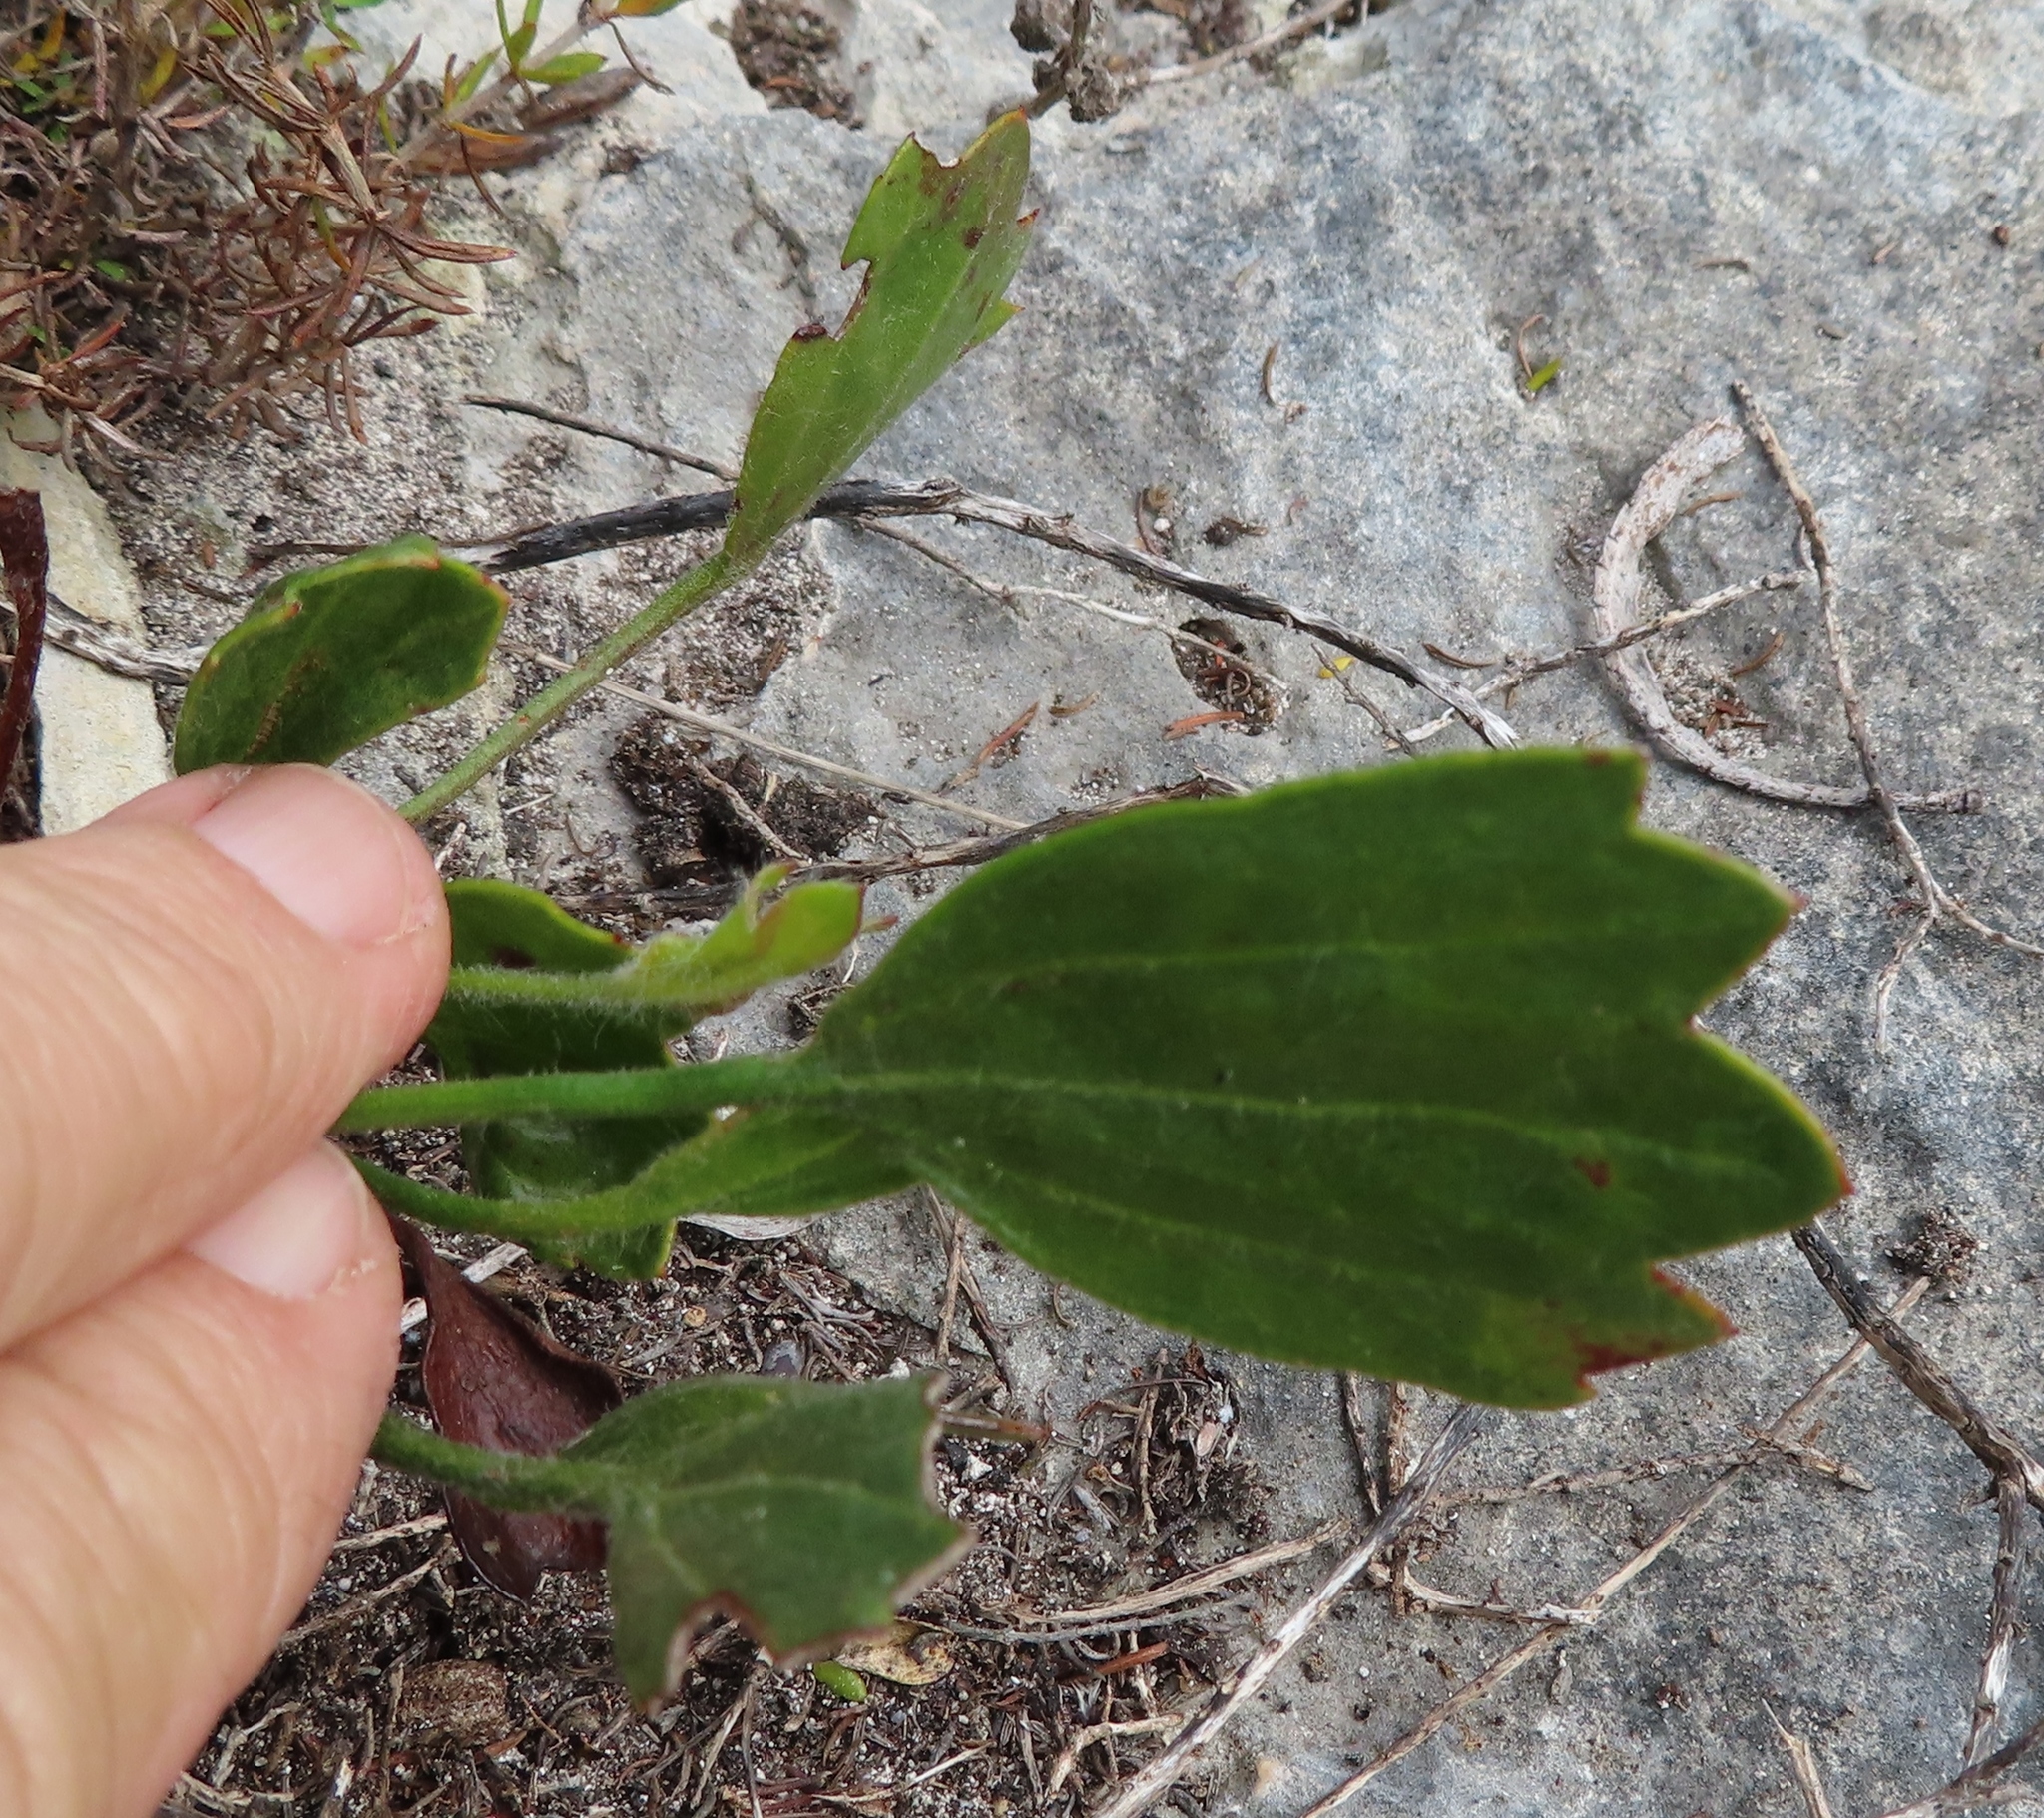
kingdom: Plantae
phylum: Tracheophyta
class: Magnoliopsida
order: Apiales
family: Apiaceae
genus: Centella
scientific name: Centella difformis
